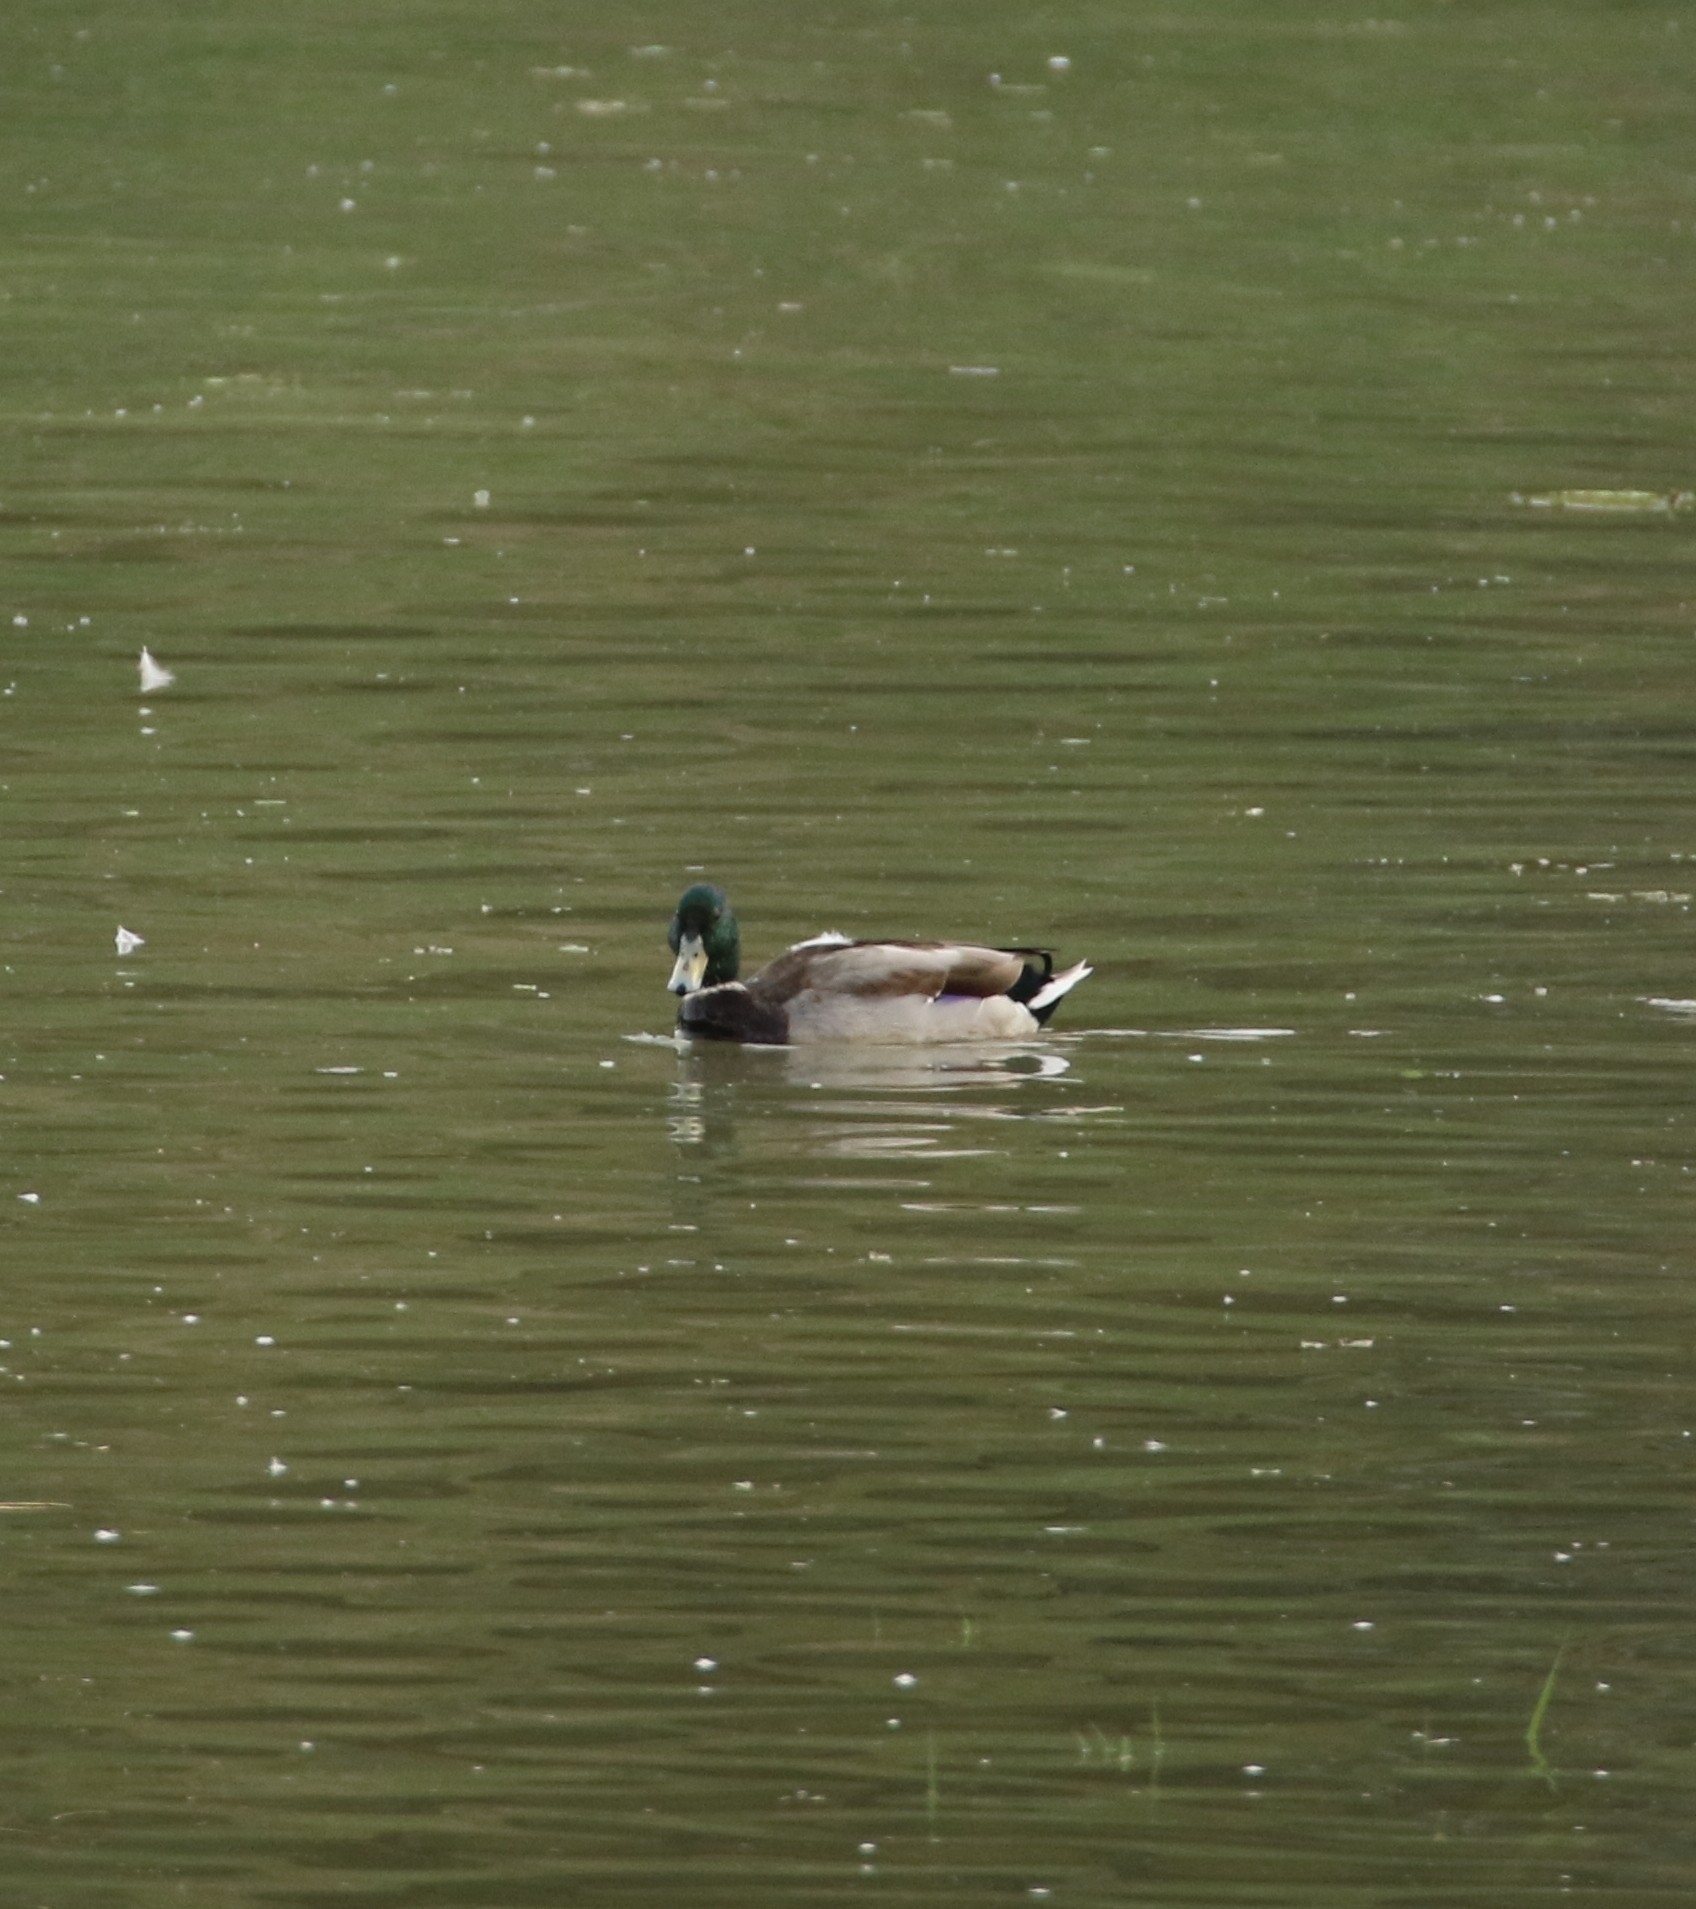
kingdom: Animalia
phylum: Chordata
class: Aves
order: Anseriformes
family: Anatidae
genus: Anas
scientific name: Anas platyrhynchos
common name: Mallard
